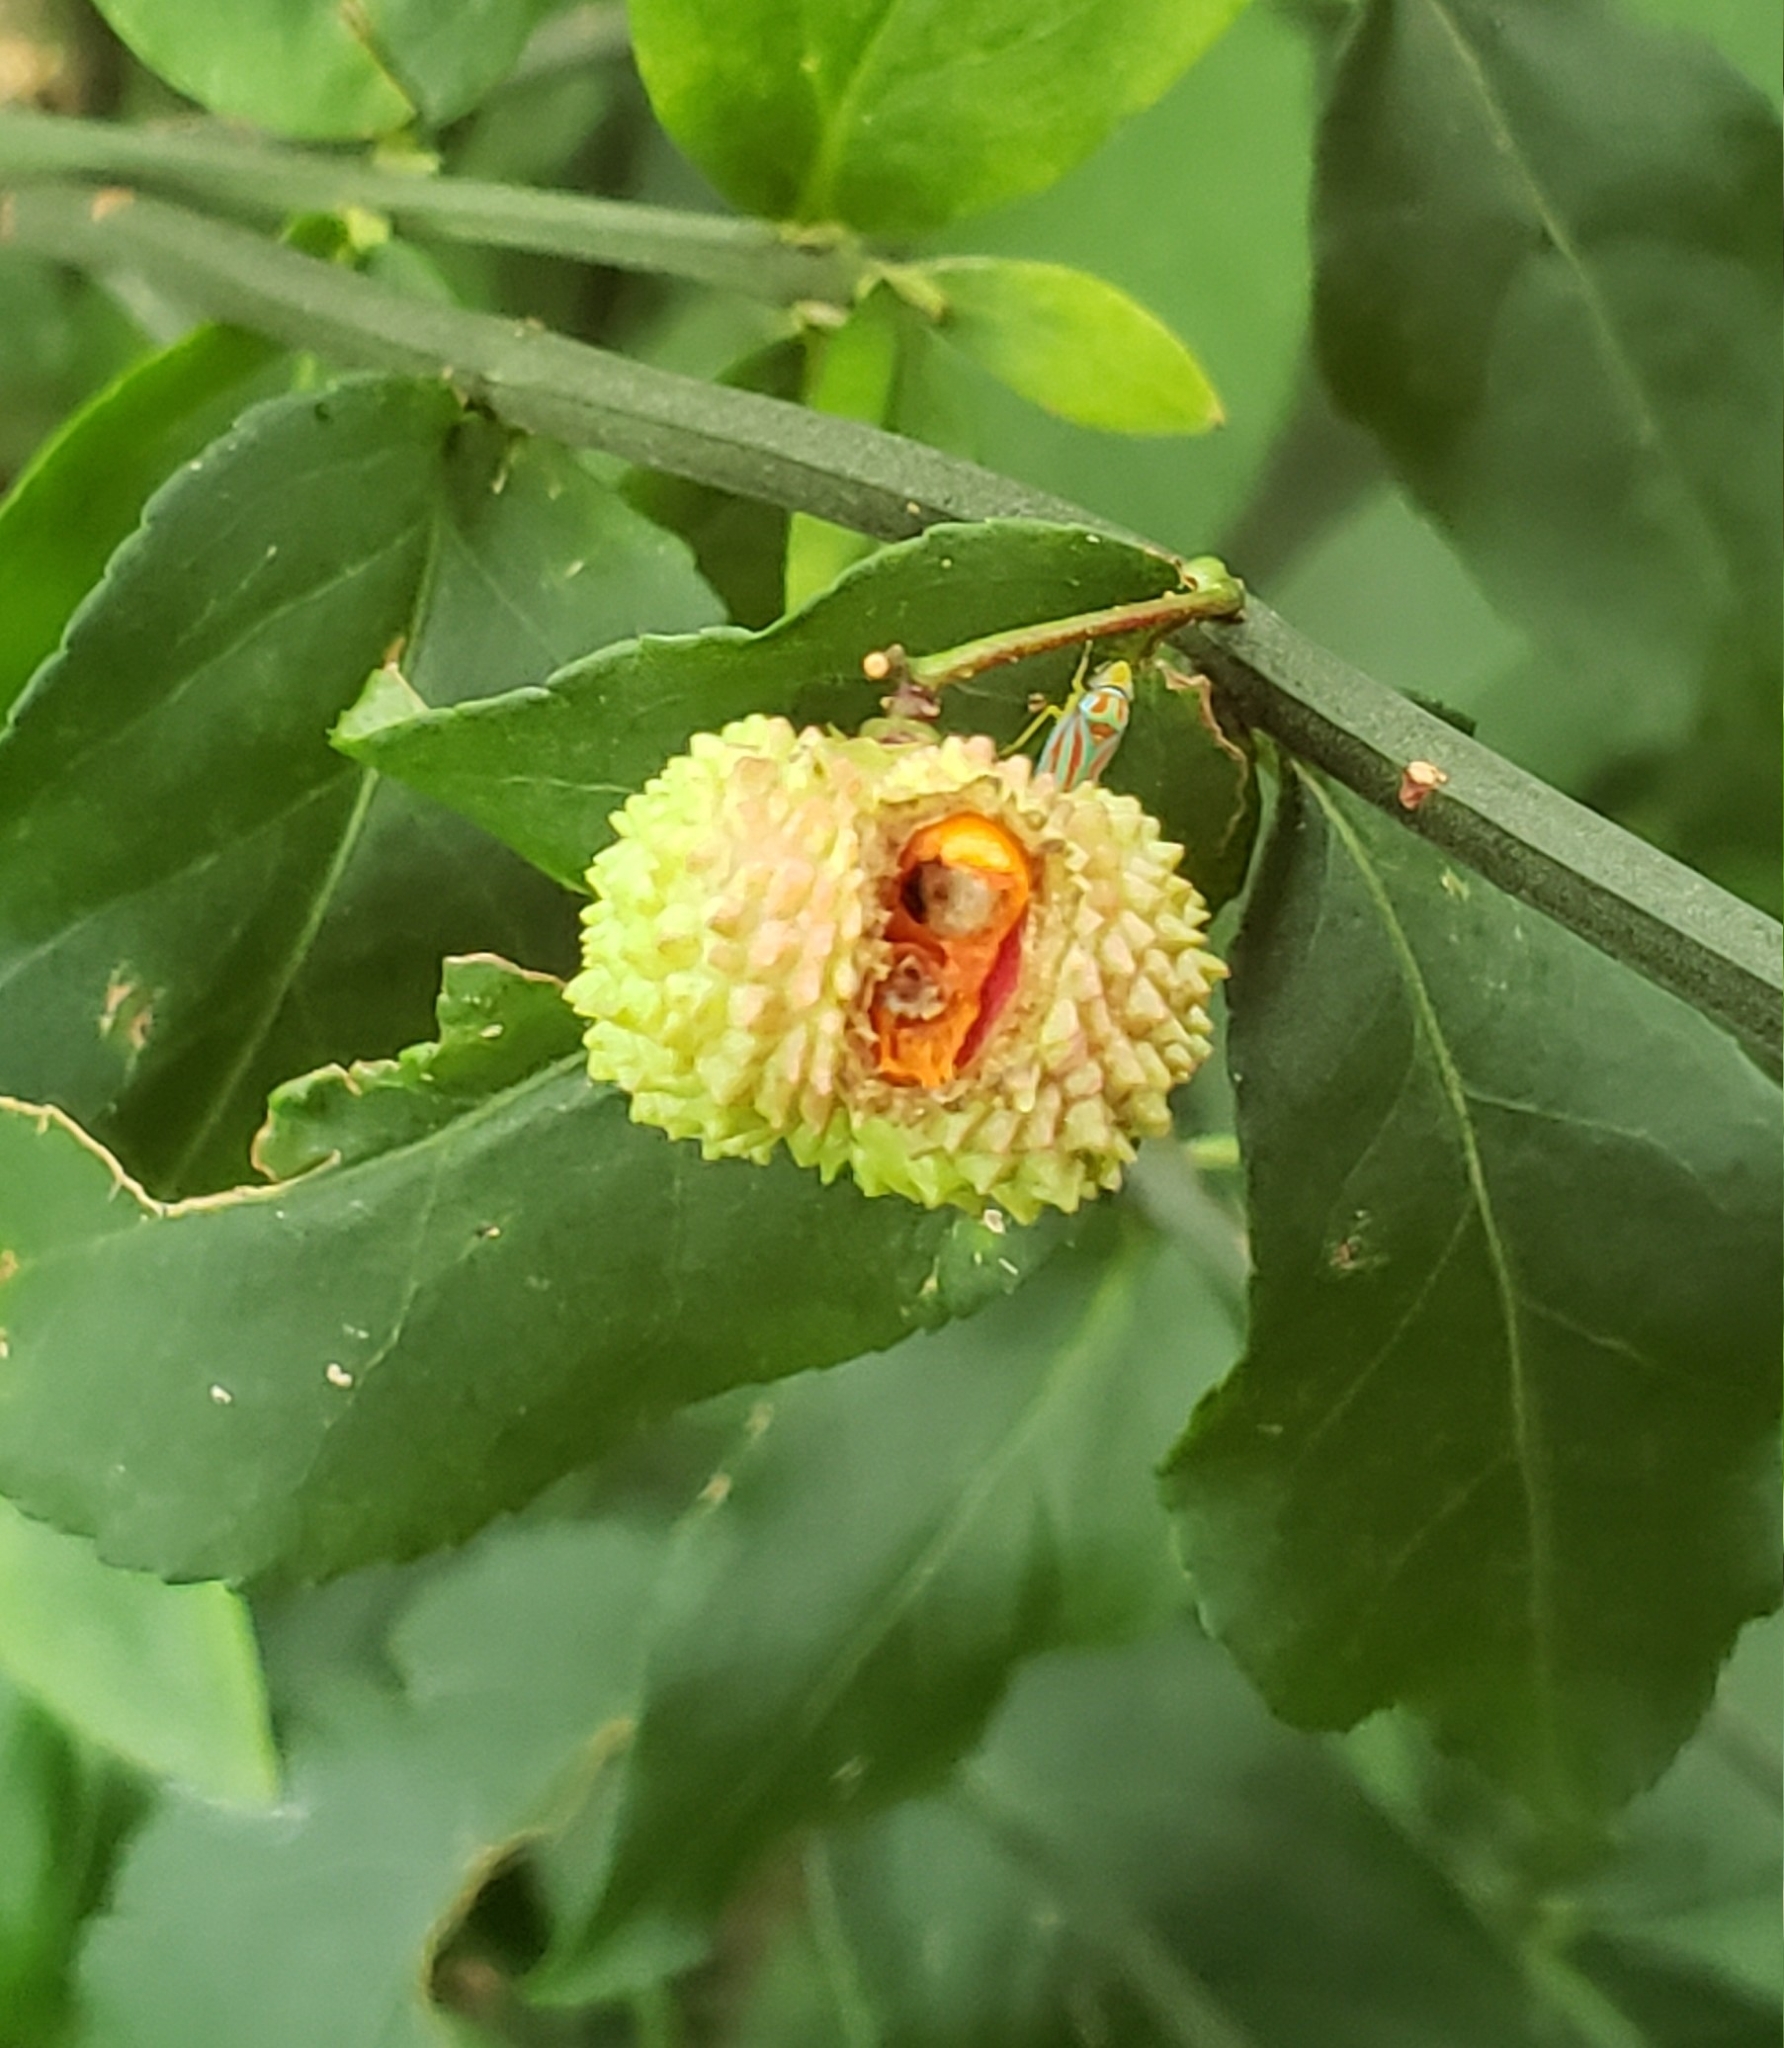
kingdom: Plantae
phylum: Tracheophyta
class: Magnoliopsida
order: Celastrales
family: Celastraceae
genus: Euonymus
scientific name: Euonymus americanus
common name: Bursting-heart
